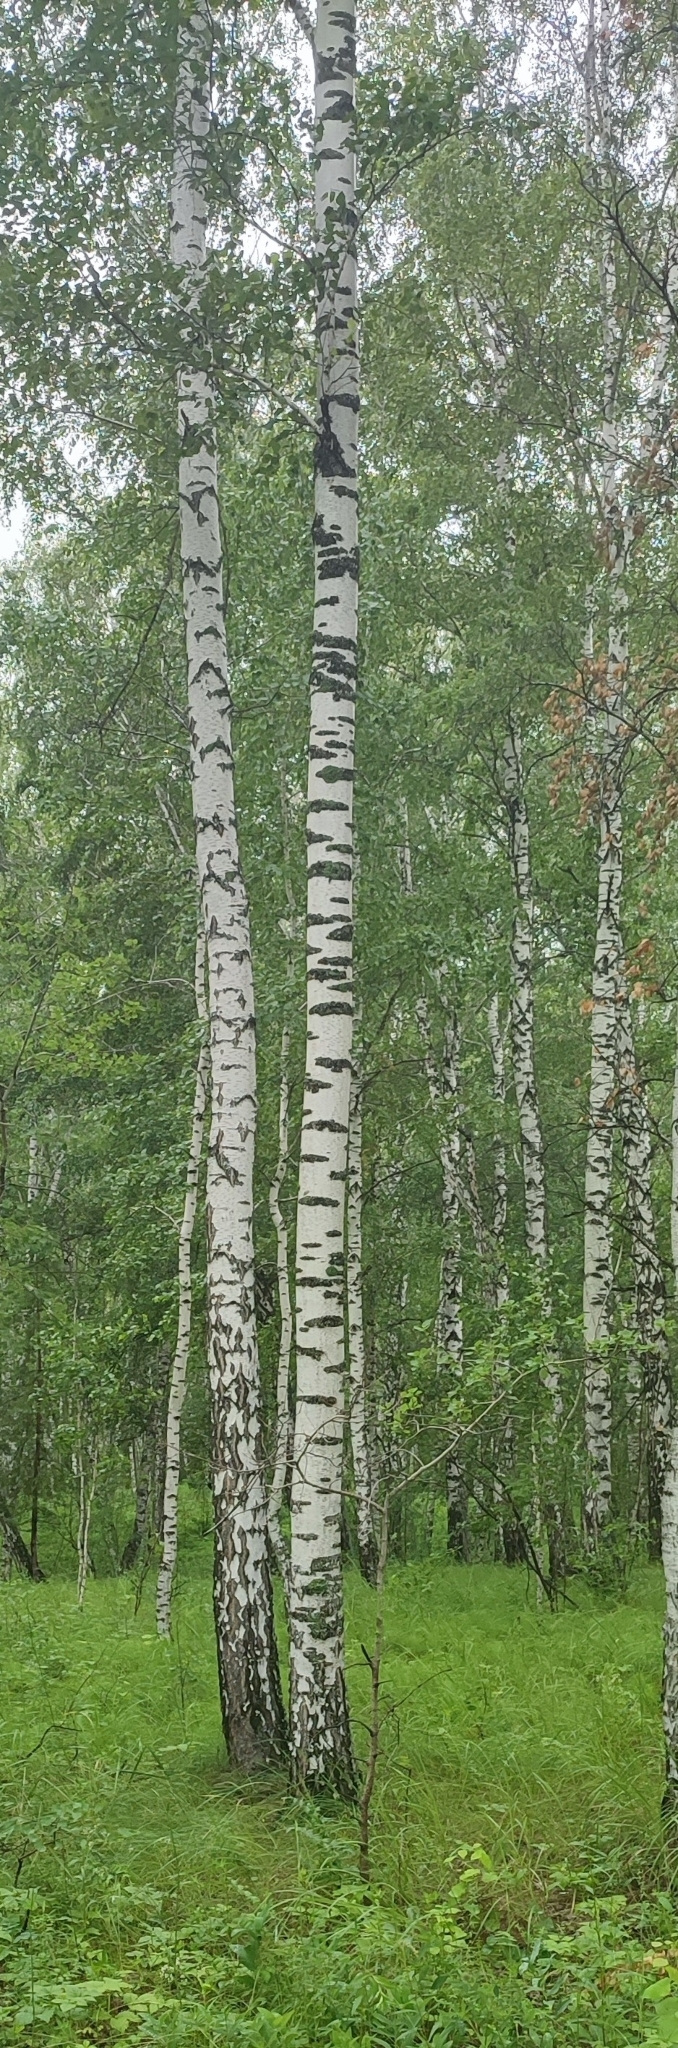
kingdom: Plantae
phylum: Tracheophyta
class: Magnoliopsida
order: Fagales
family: Betulaceae
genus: Betula
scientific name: Betula pendula
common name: Silver birch
